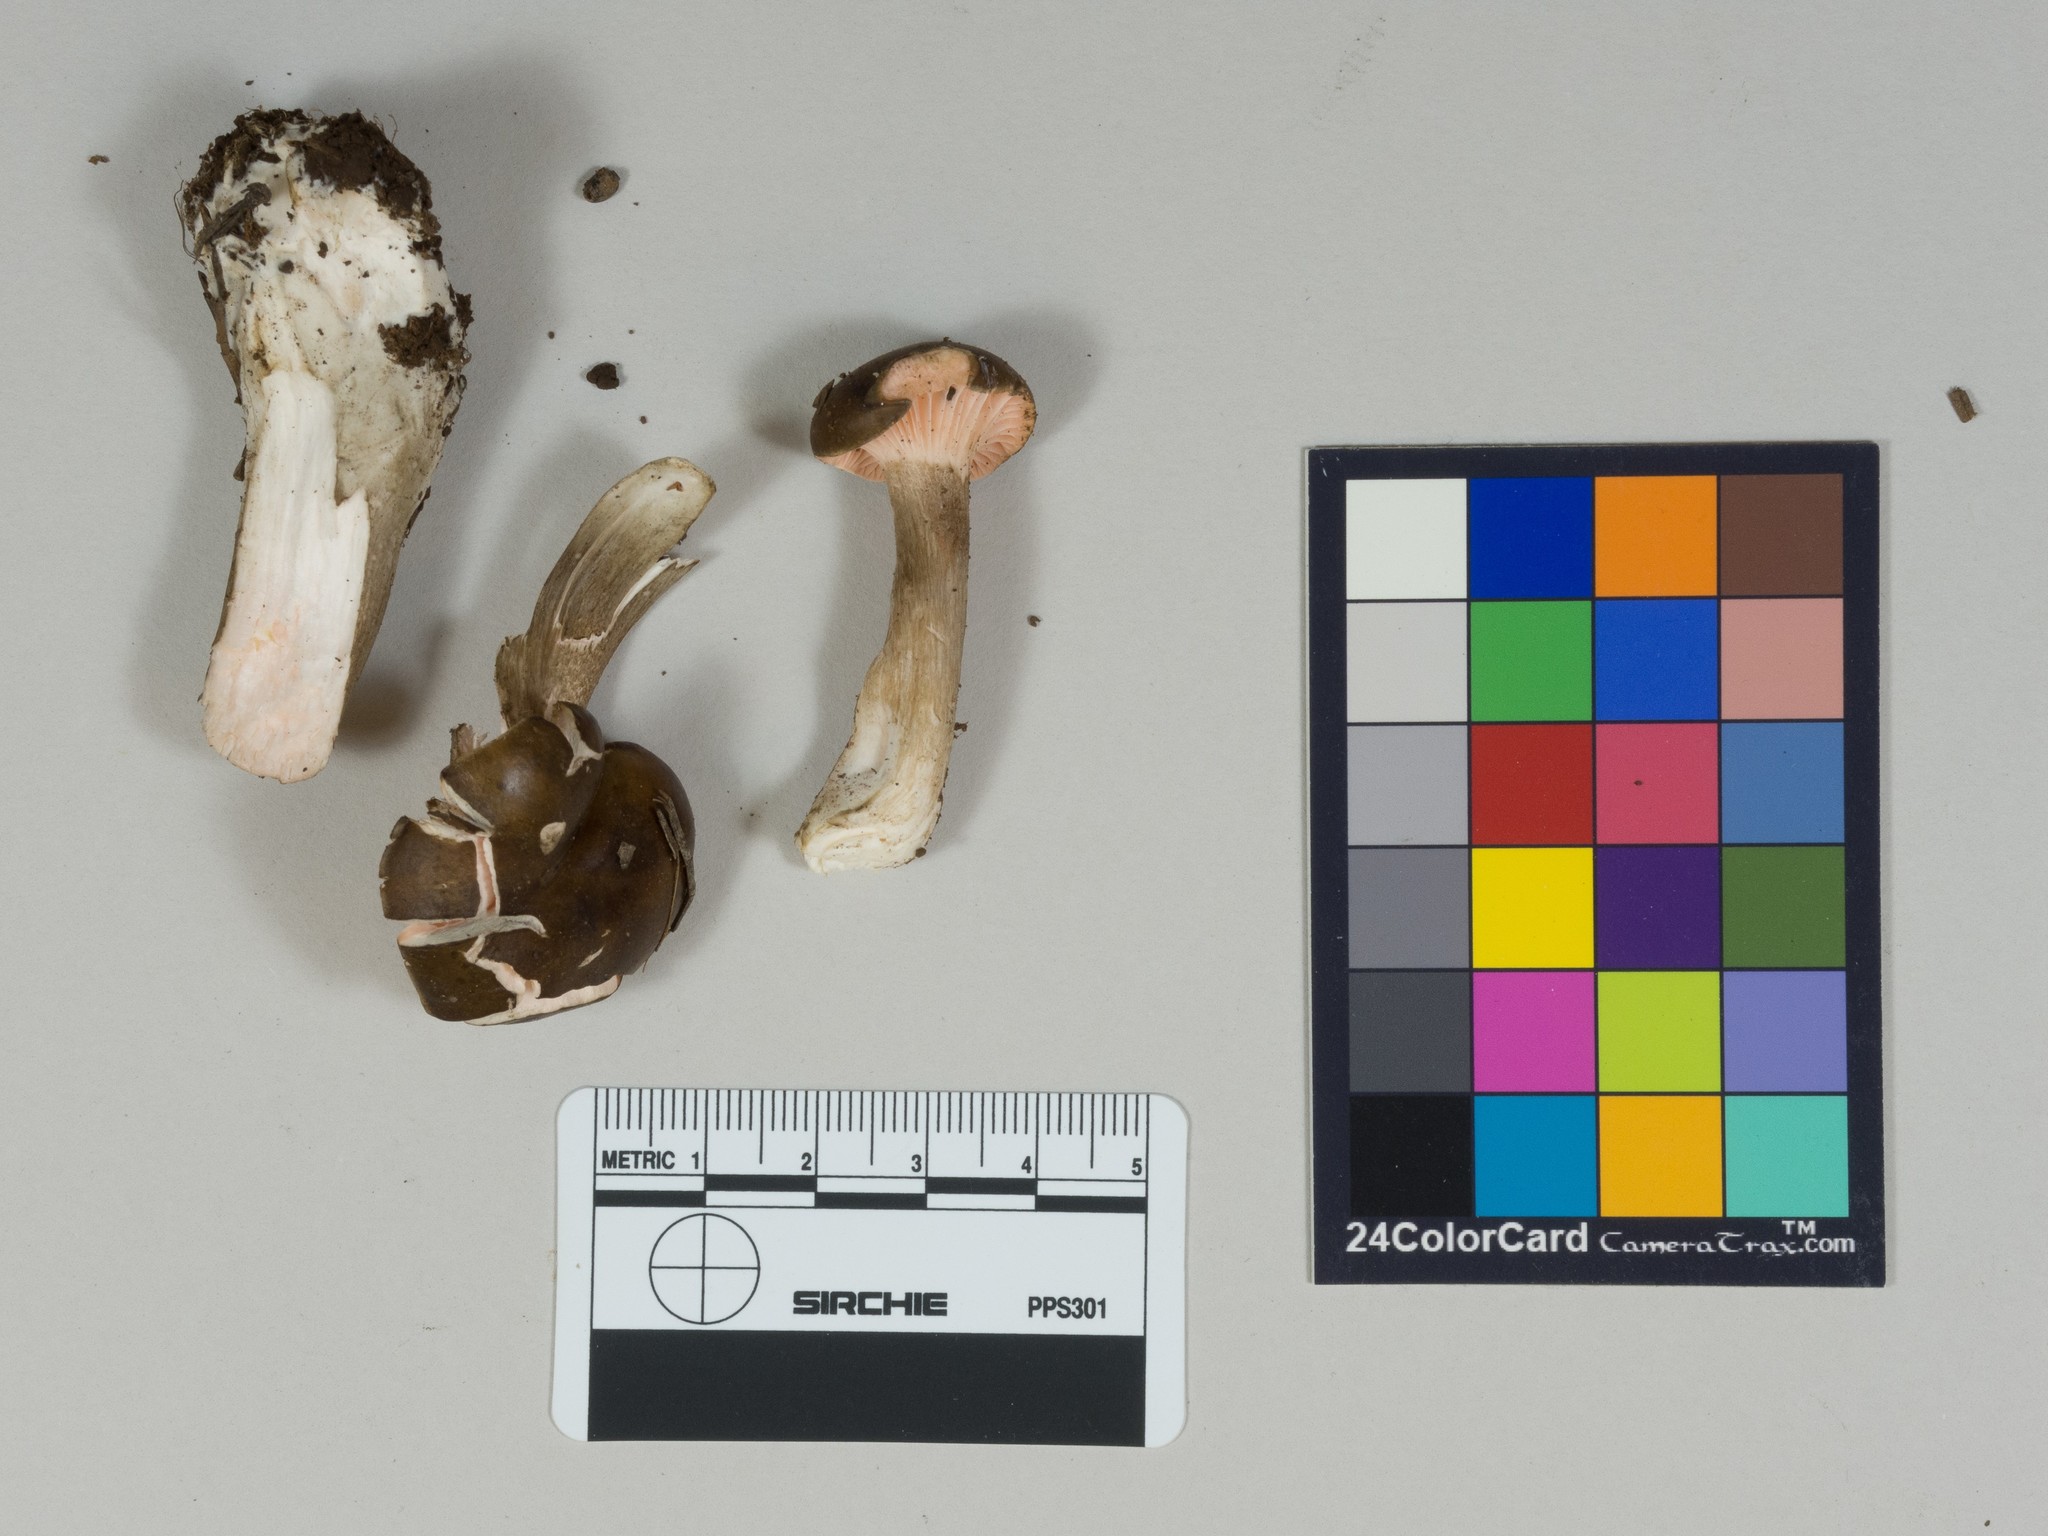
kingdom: Fungi
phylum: Basidiomycota
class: Agaricomycetes
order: Agaricales
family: Hygrophoraceae
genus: Hygrophorus
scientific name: Hygrophorus camarophyllus
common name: Arched woodwax
